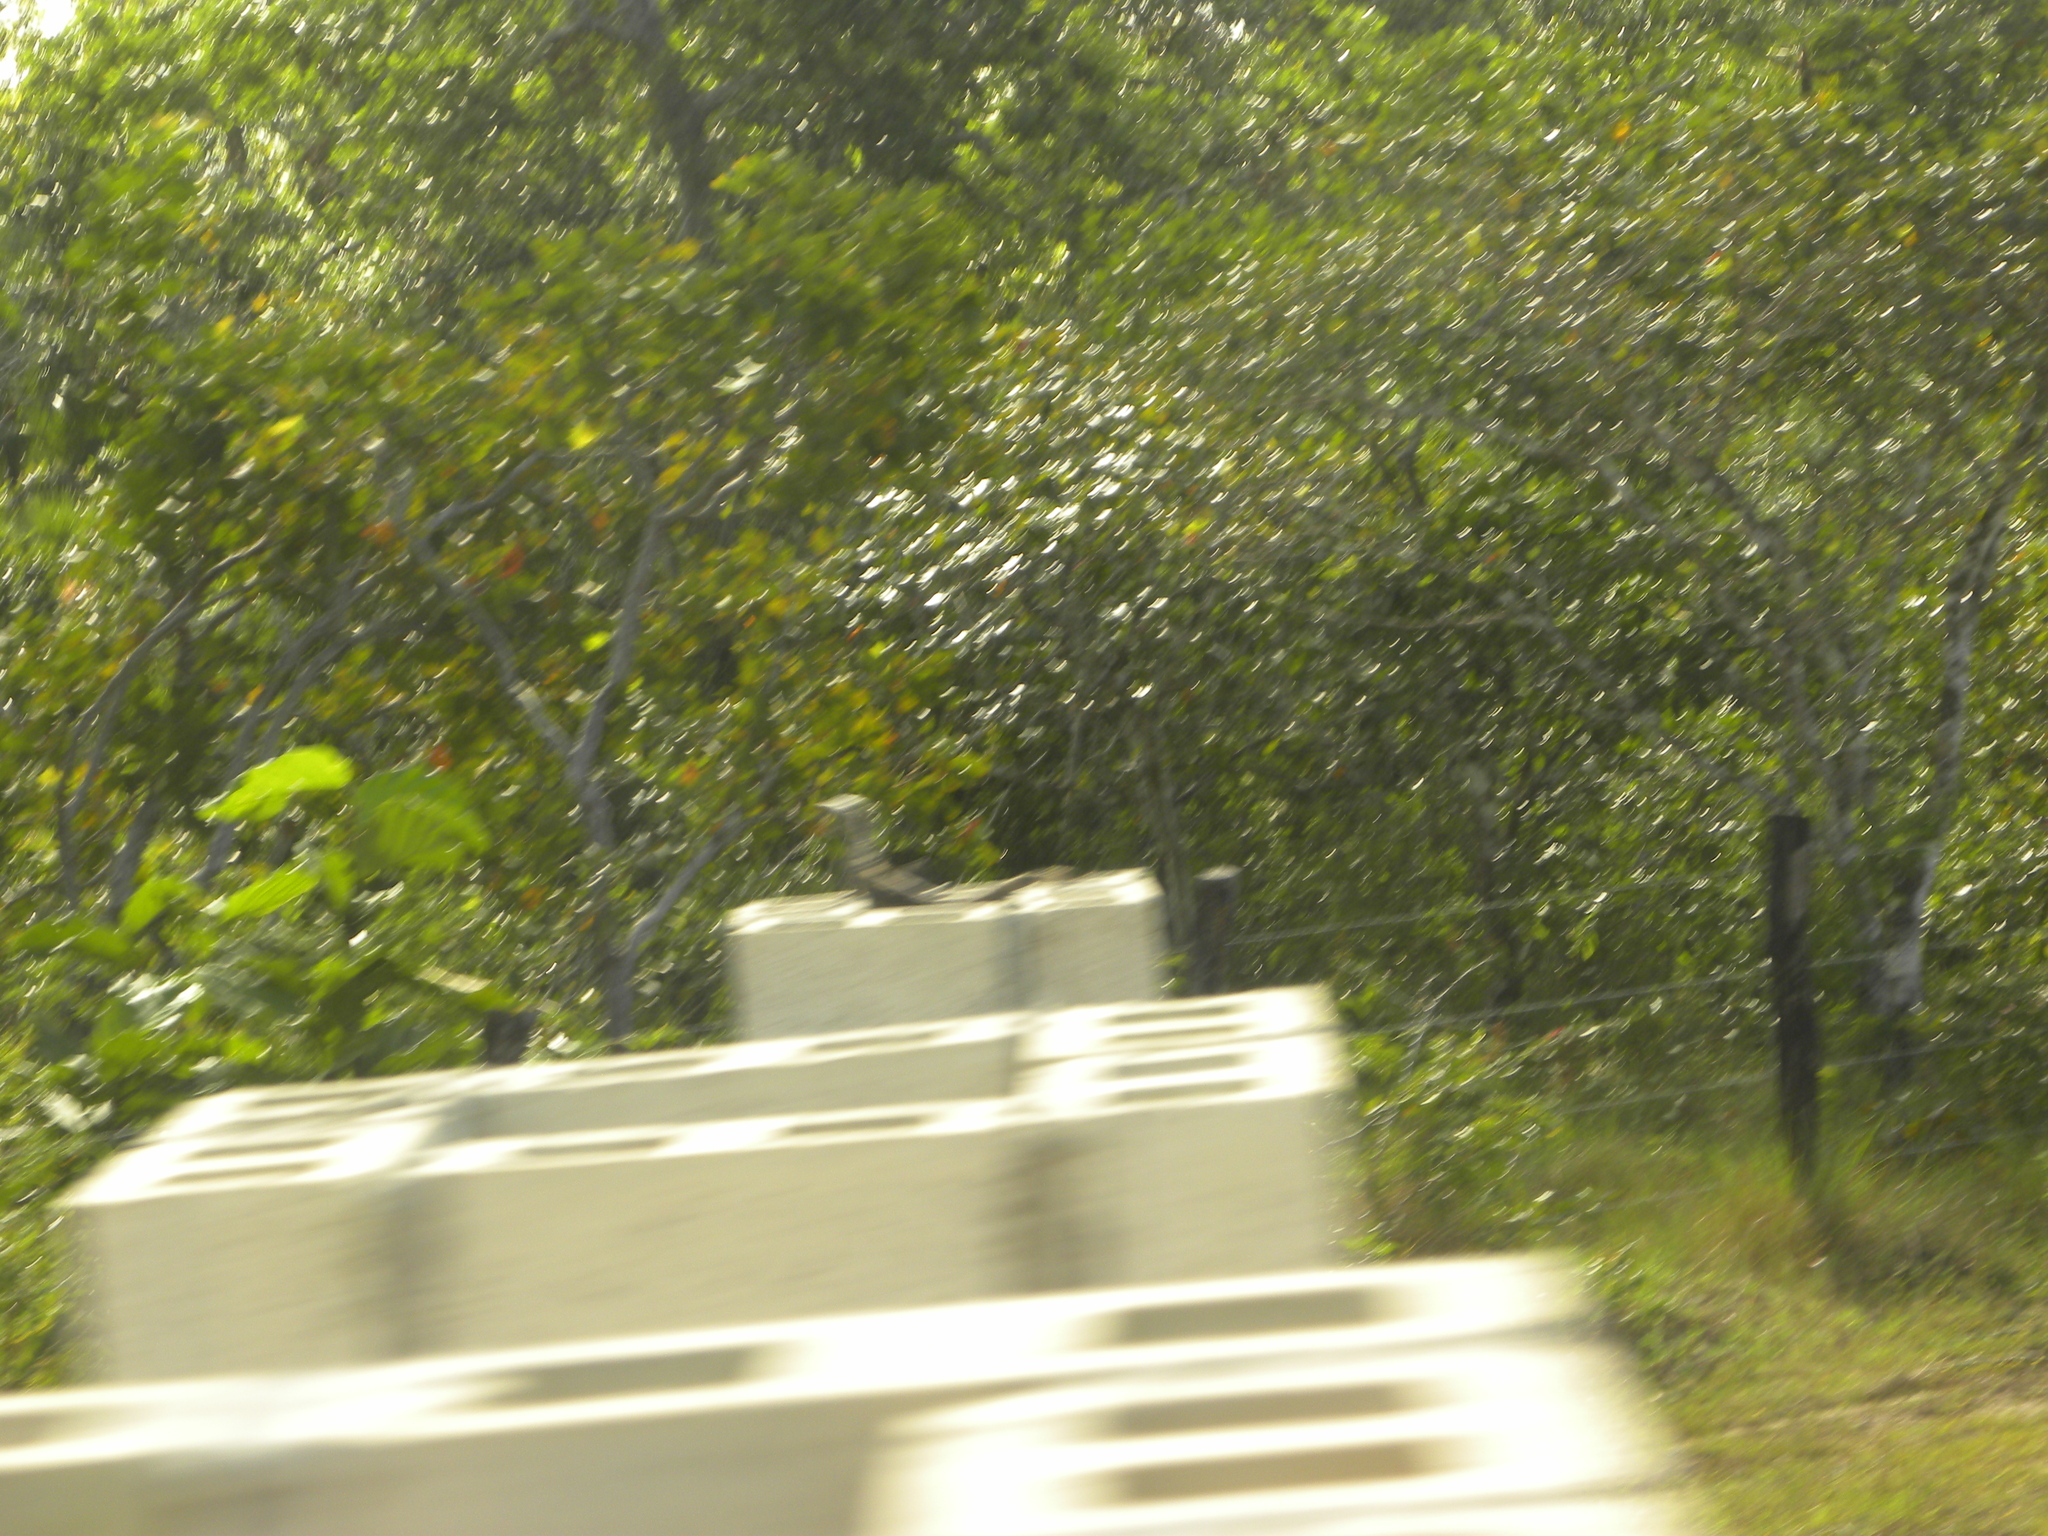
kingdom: Animalia
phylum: Chordata
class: Squamata
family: Iguanidae
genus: Ctenosaura
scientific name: Ctenosaura similis
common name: Black spiny-tailed iguana
